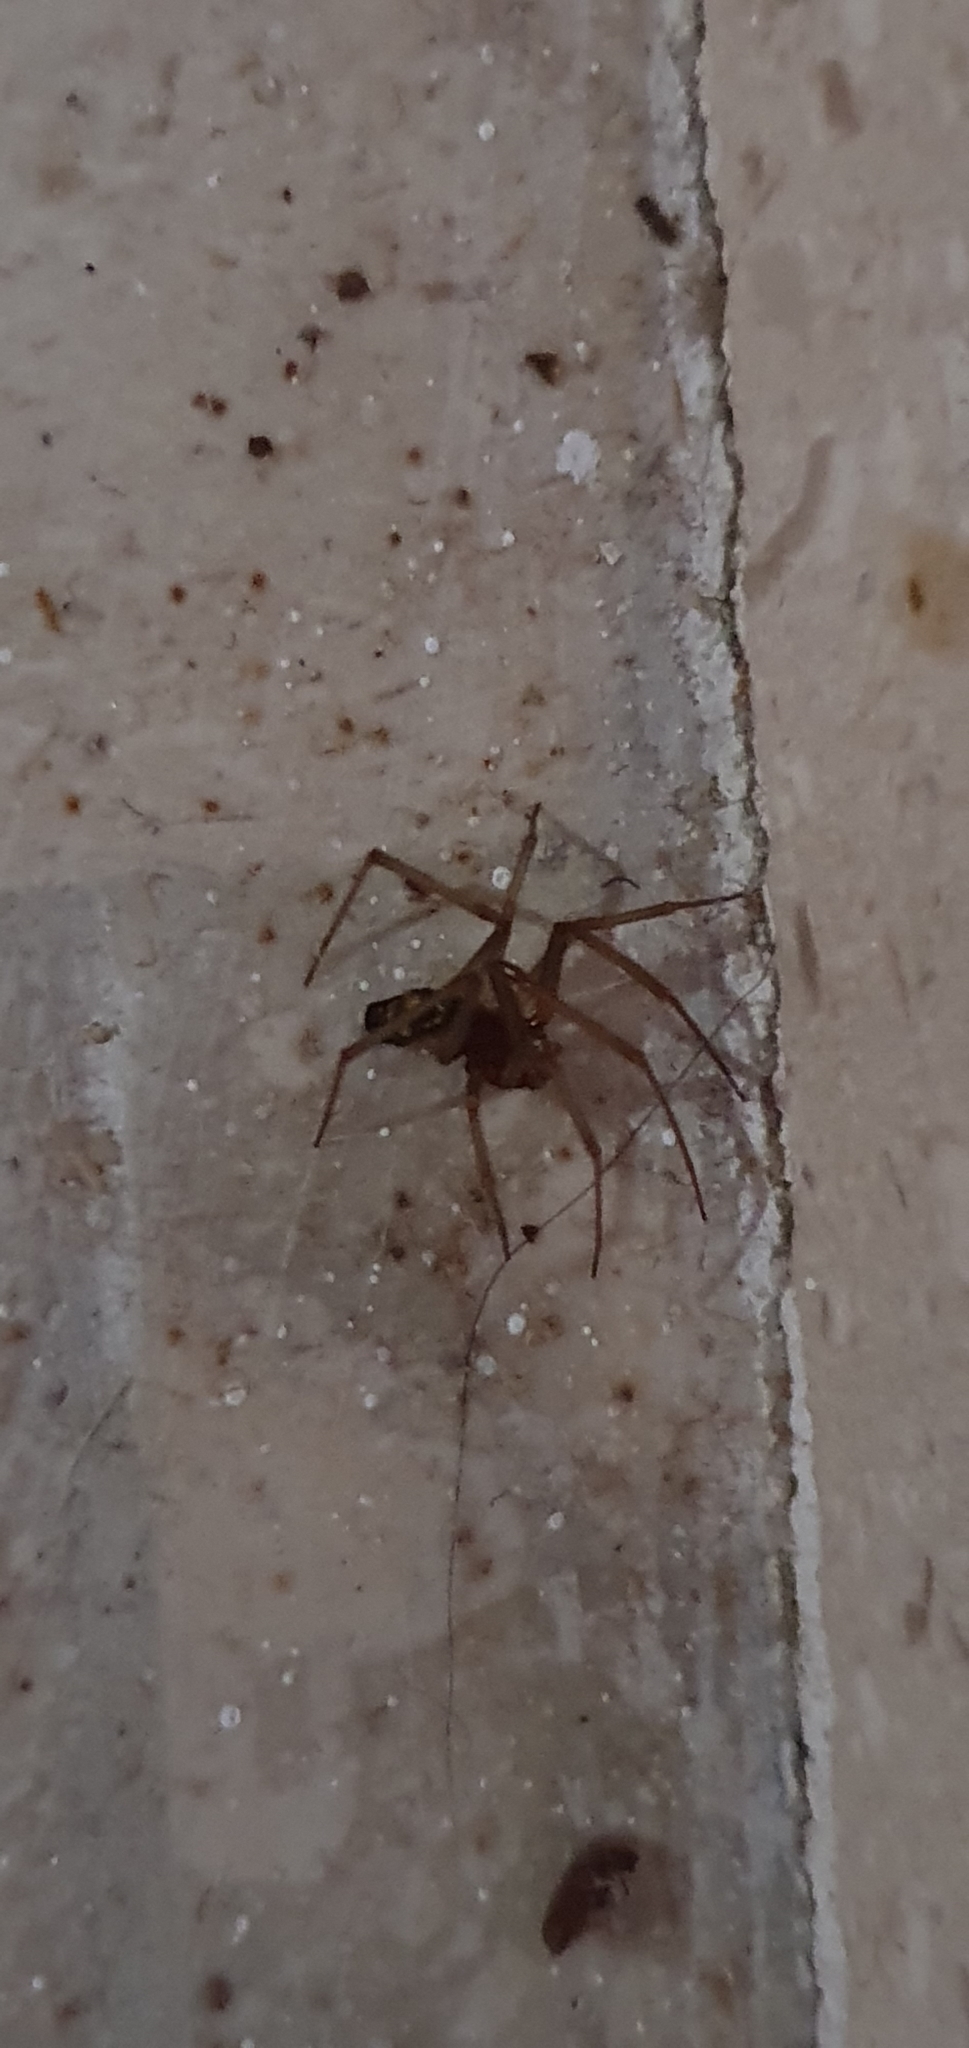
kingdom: Animalia
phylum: Arthropoda
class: Arachnida
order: Araneae
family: Theridiidae
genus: Steatoda
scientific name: Steatoda grossa
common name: False black widow
